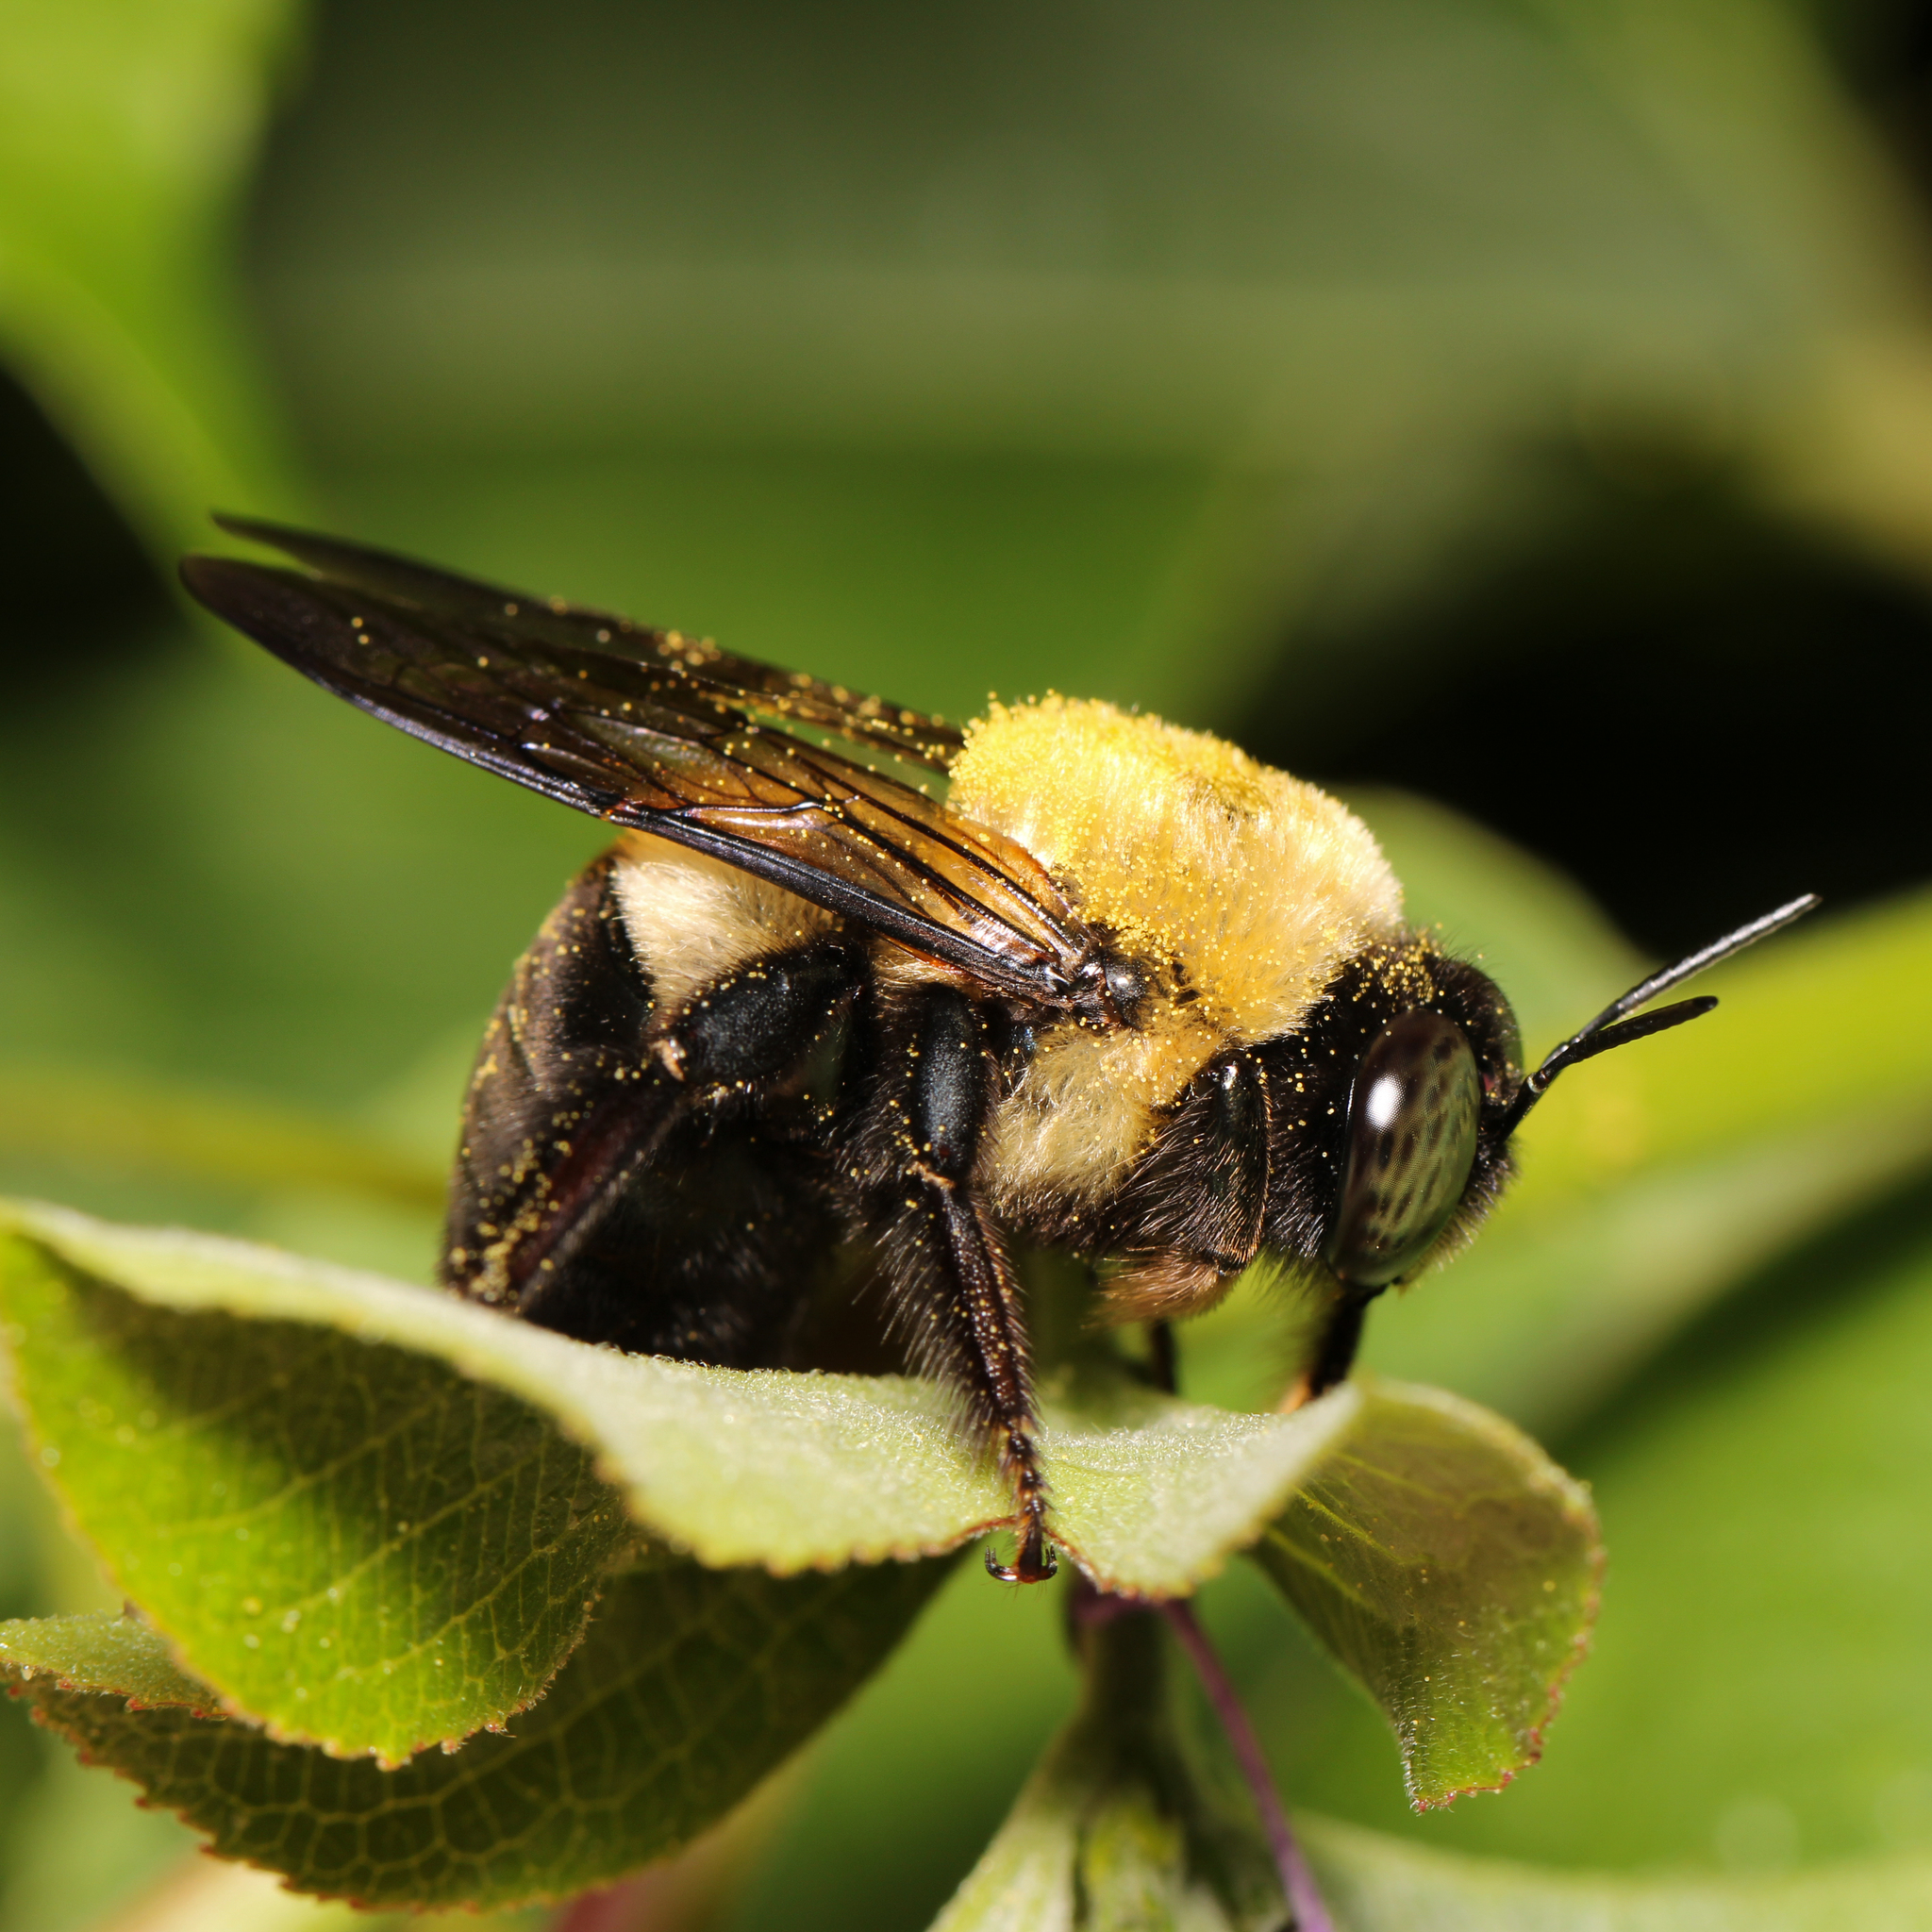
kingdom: Animalia
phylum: Arthropoda
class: Insecta
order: Hymenoptera
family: Apidae
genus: Xylocopa
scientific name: Xylocopa virginica
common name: Carpenter bee
